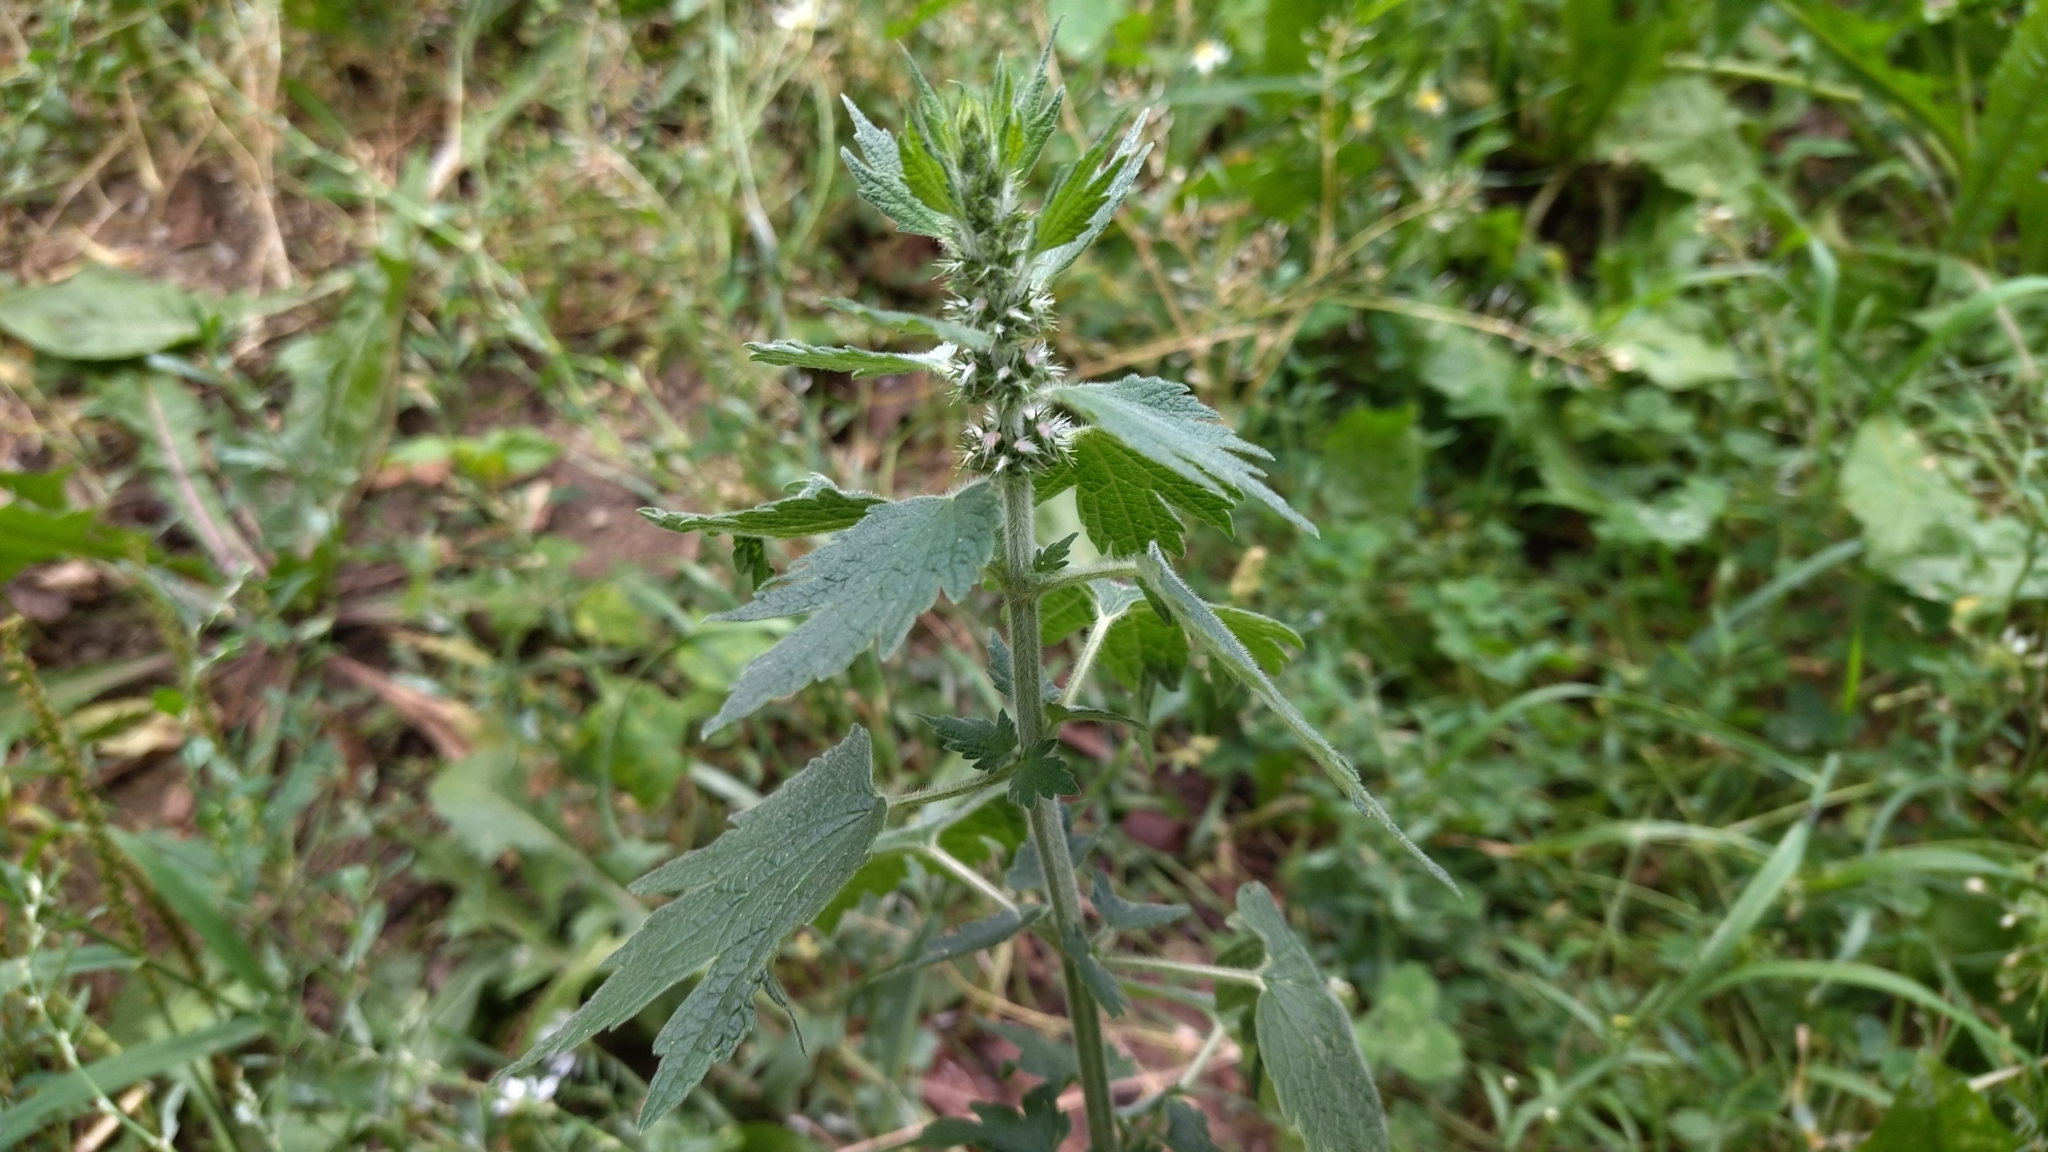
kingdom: Plantae
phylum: Tracheophyta
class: Magnoliopsida
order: Lamiales
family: Lamiaceae
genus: Leonurus
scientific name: Leonurus quinquelobatus
